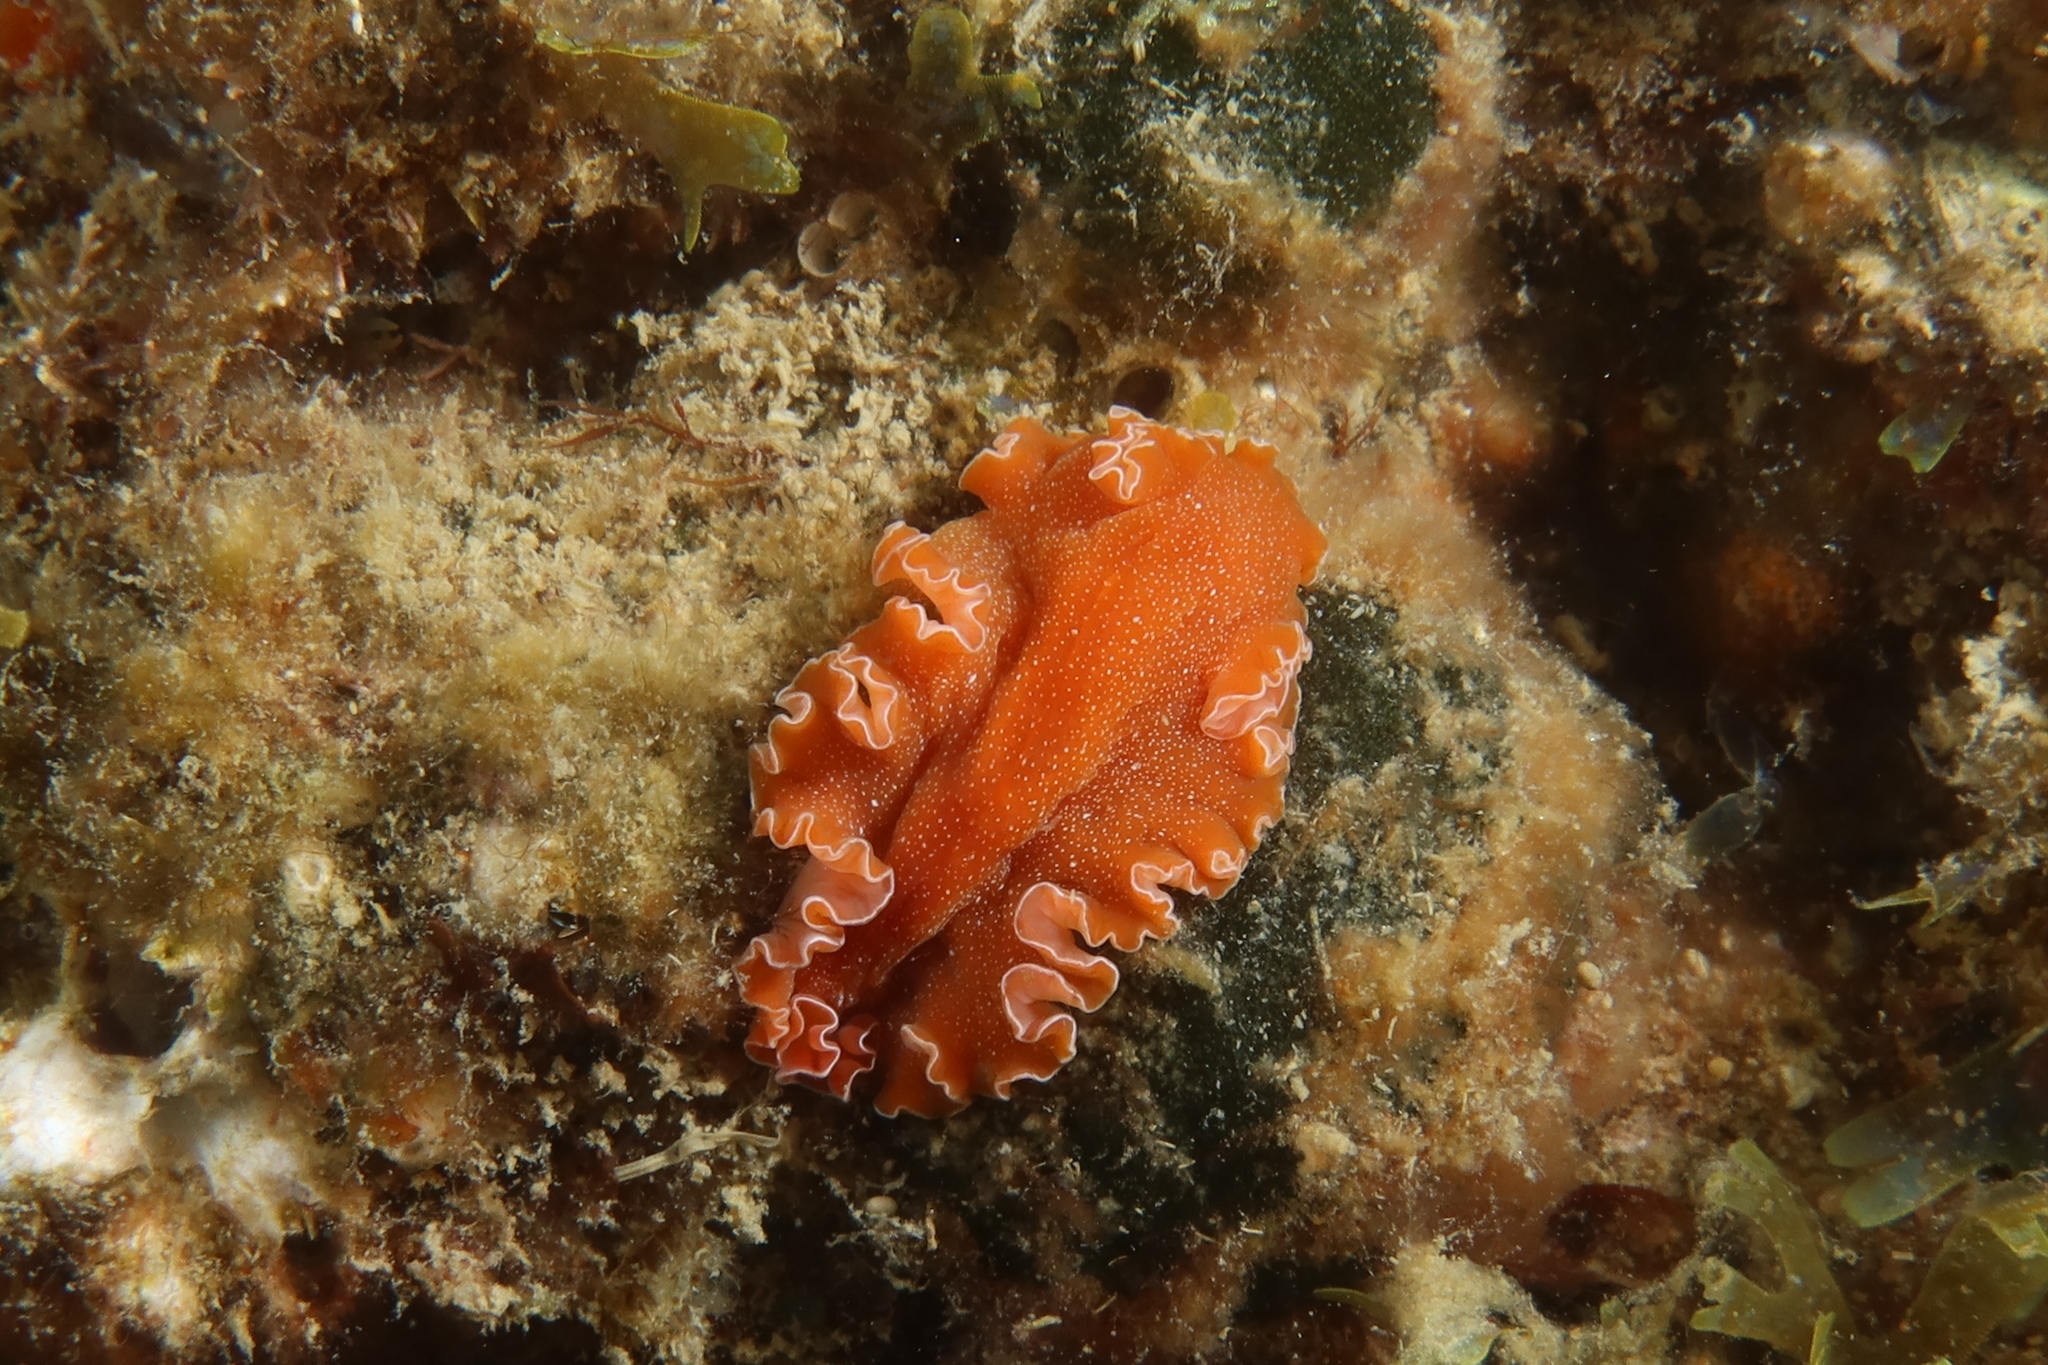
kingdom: Animalia
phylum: Platyhelminthes
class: Turbellaria
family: Pseudocerotidae
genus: Yungia
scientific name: Yungia aurantiaca
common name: Mediterranean orange polyclad worm
